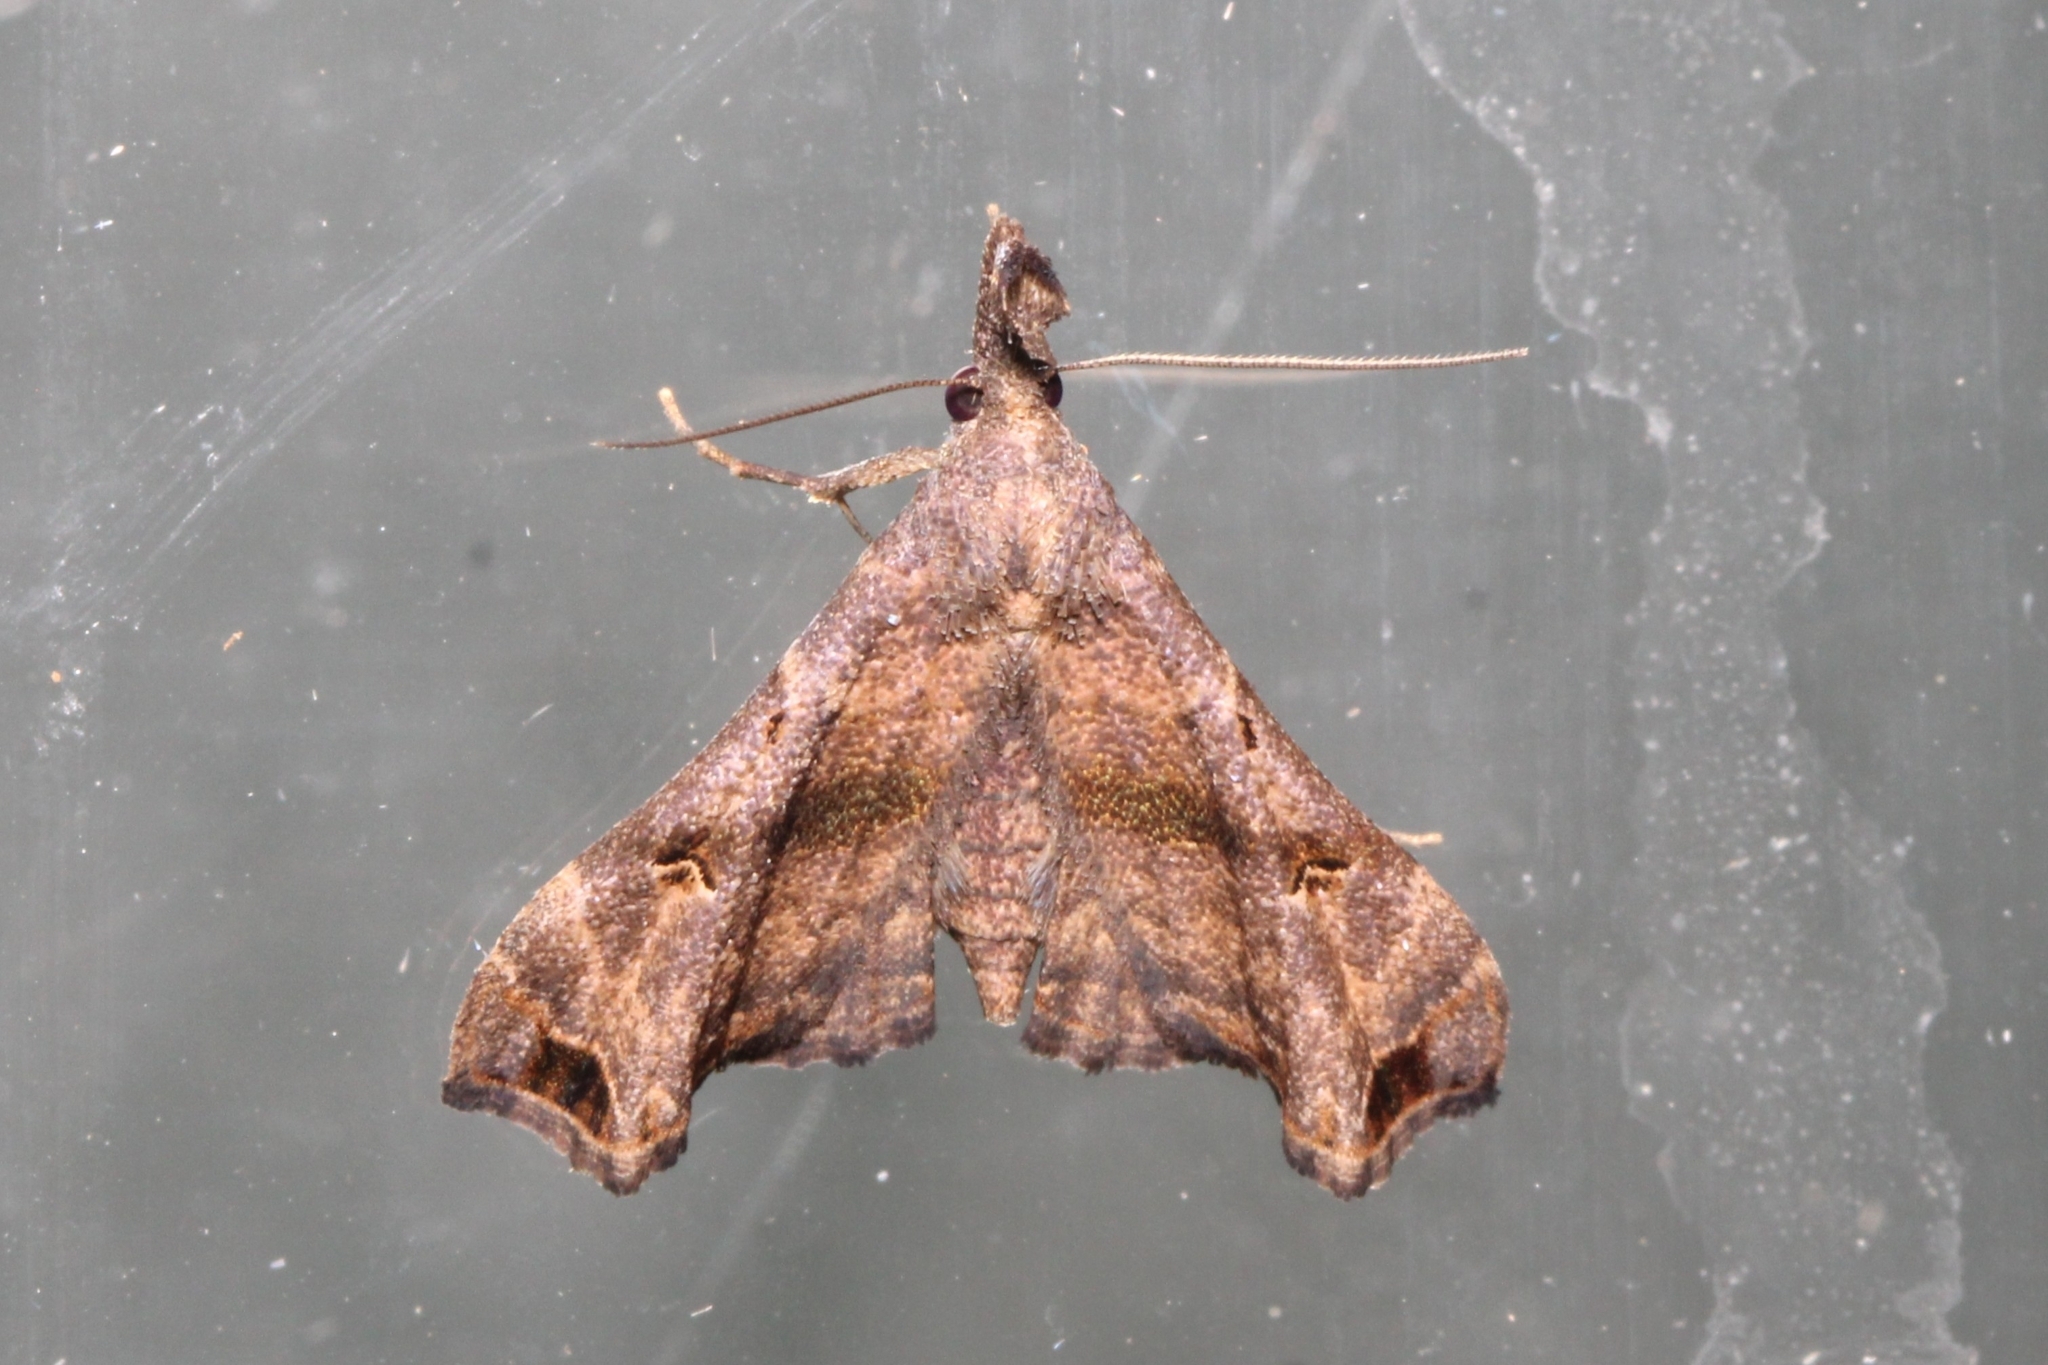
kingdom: Animalia
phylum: Arthropoda
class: Insecta
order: Lepidoptera
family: Erebidae
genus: Palthis
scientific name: Palthis asopialis
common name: Faint-spotted palthis moth
